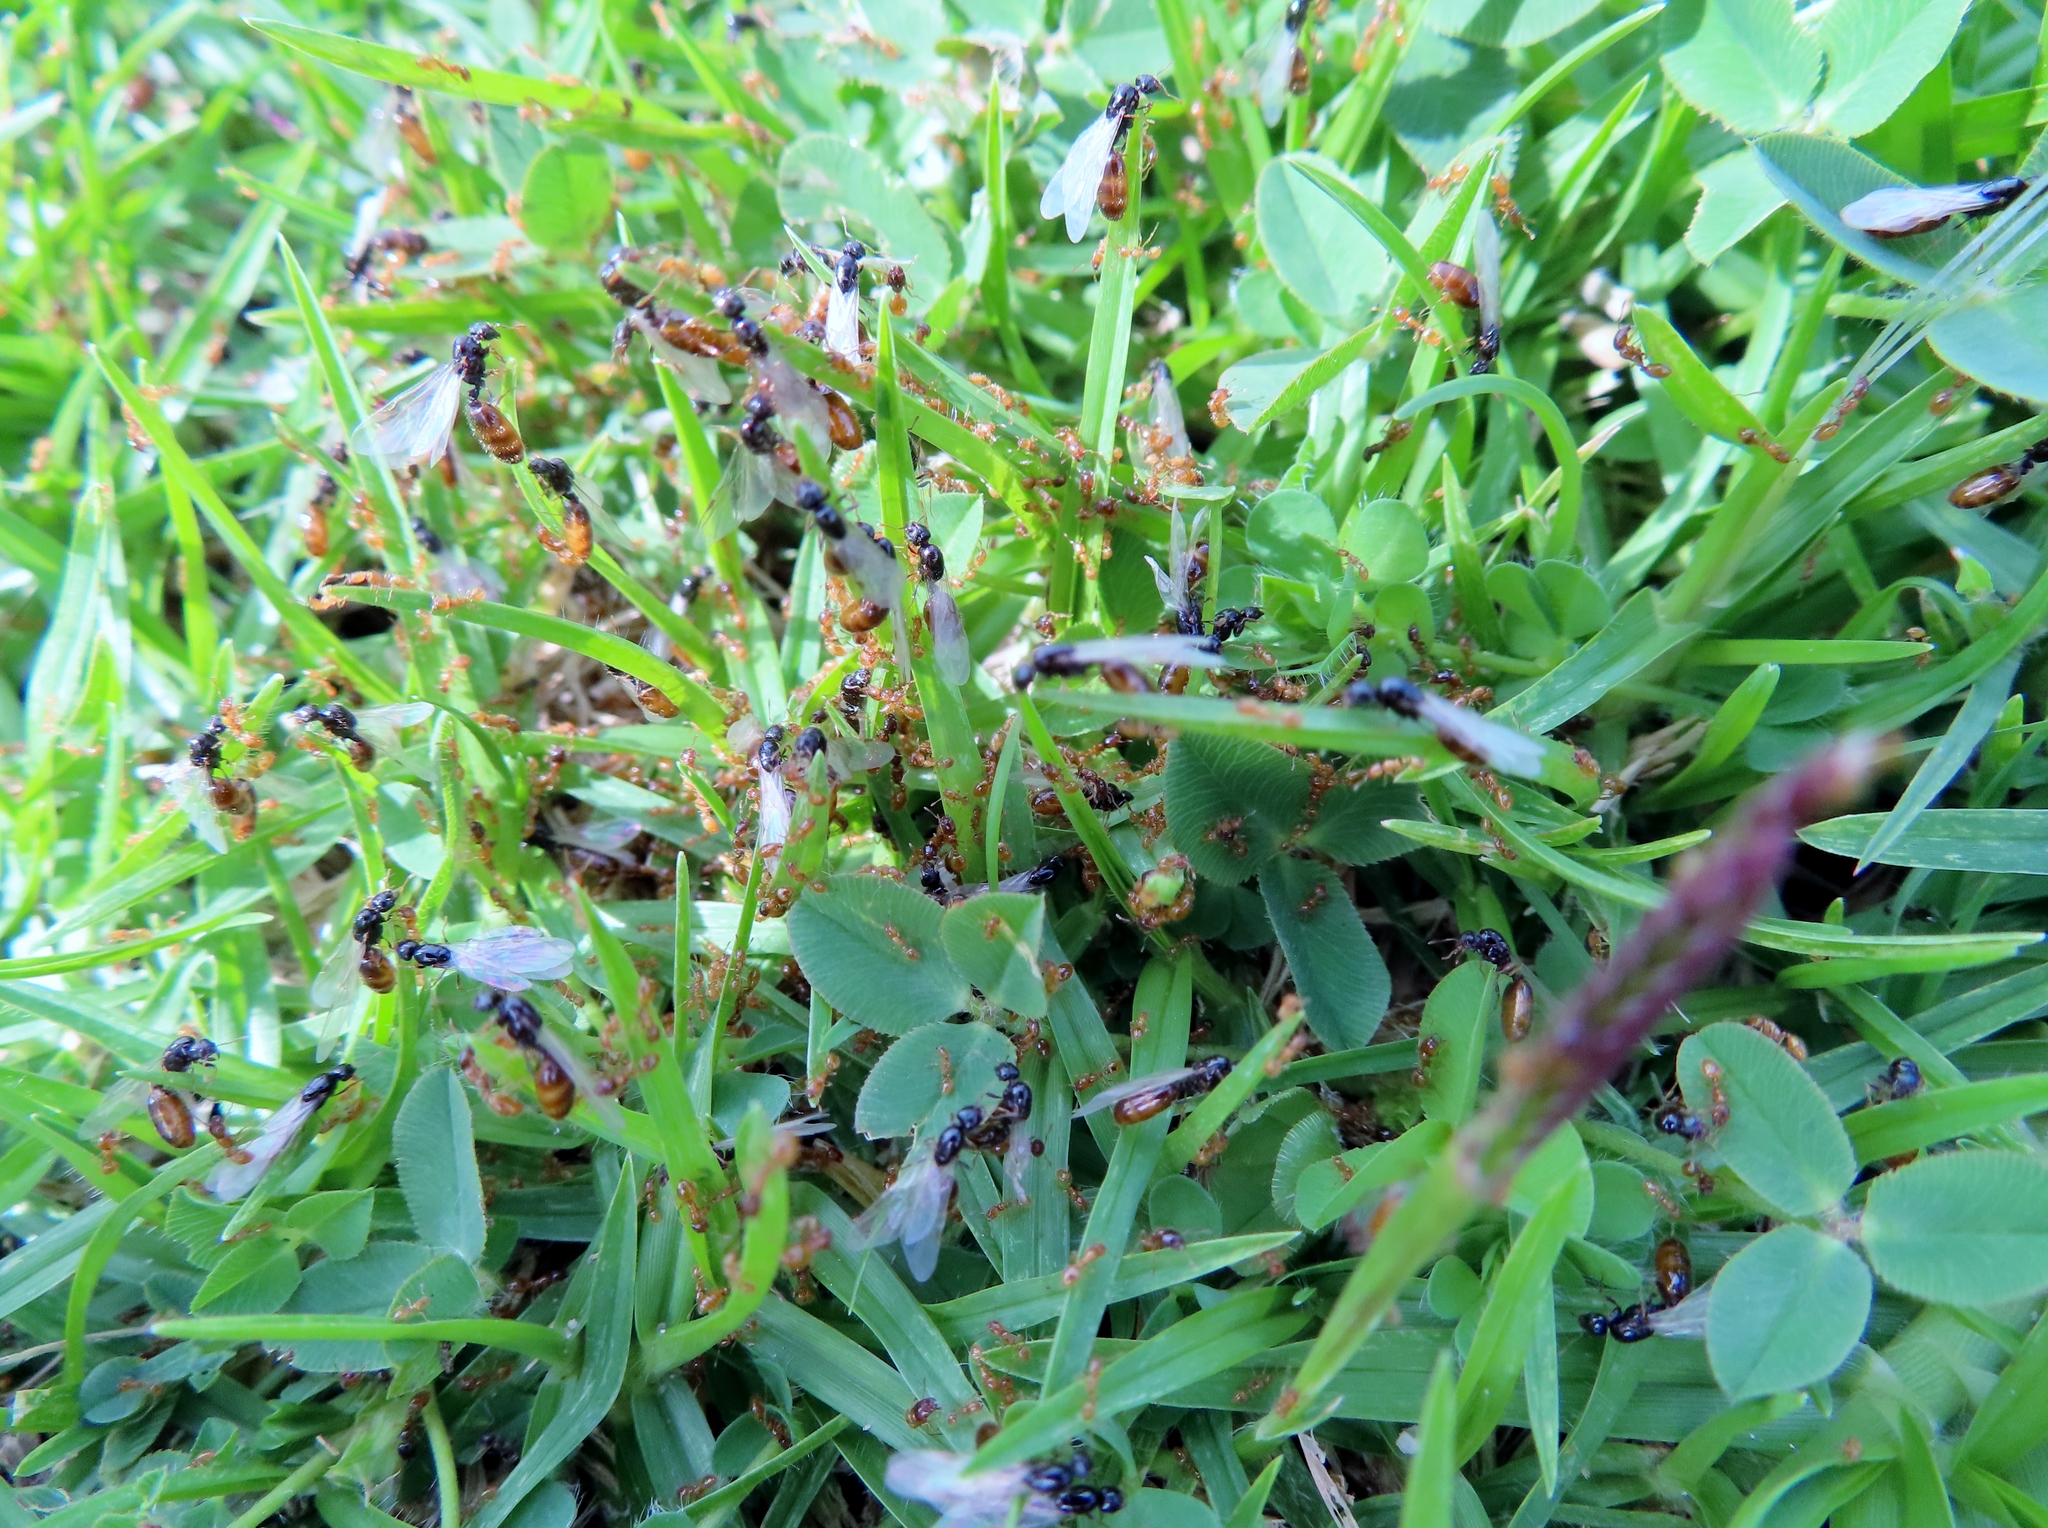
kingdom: Animalia
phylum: Arthropoda
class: Insecta
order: Hymenoptera
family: Formicidae
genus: Solenopsis
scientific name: Solenopsis punctaticeps
